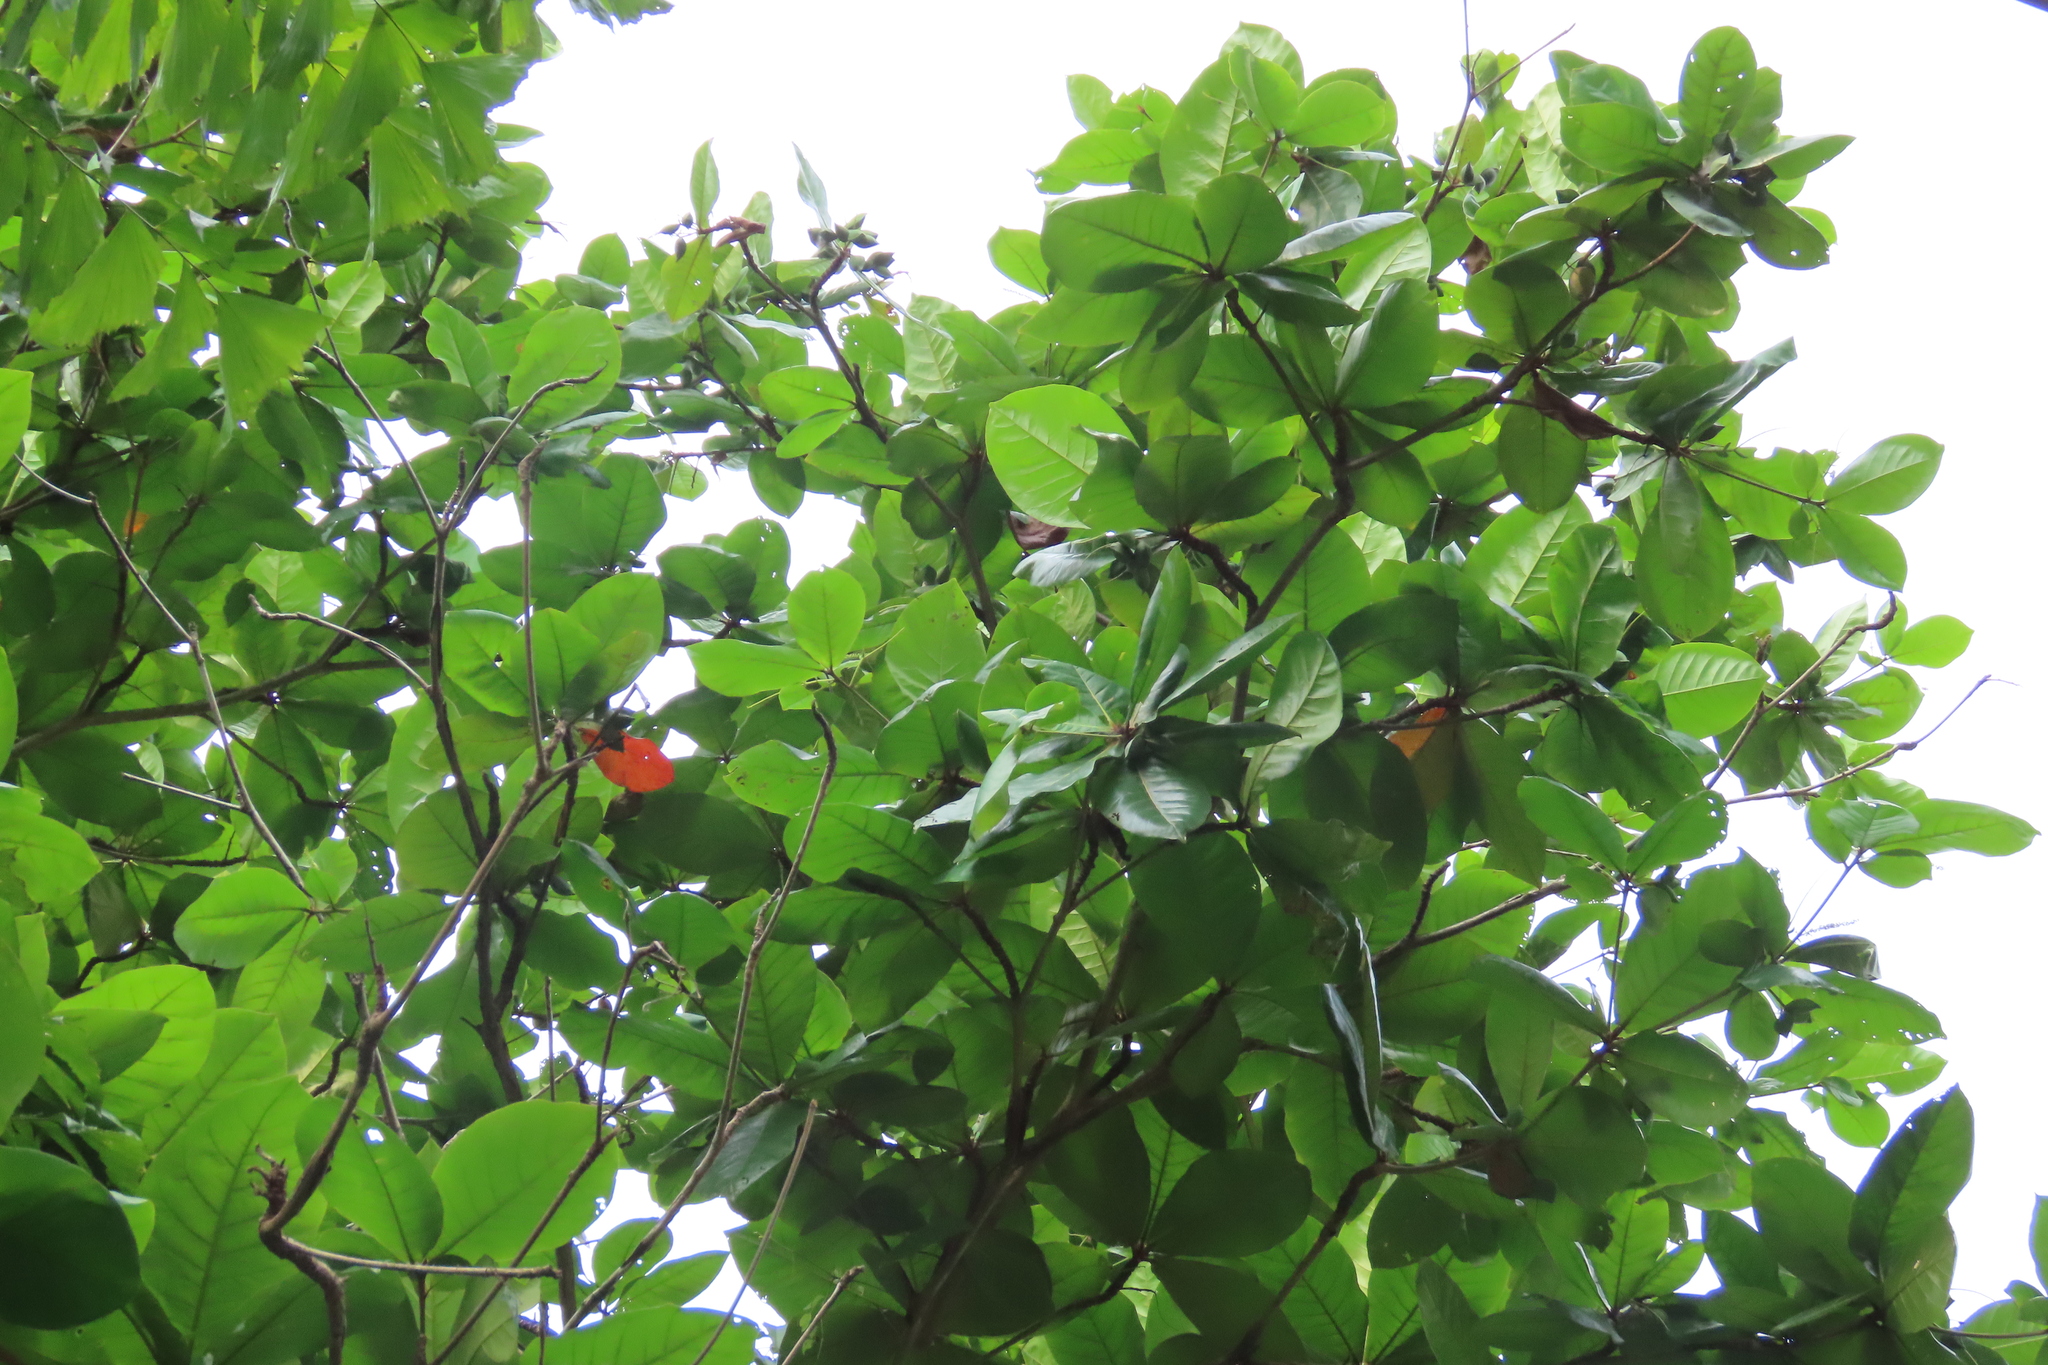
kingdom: Plantae
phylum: Tracheophyta
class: Magnoliopsida
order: Myrtales
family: Combretaceae
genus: Terminalia
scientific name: Terminalia catappa
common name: Tropical almond
